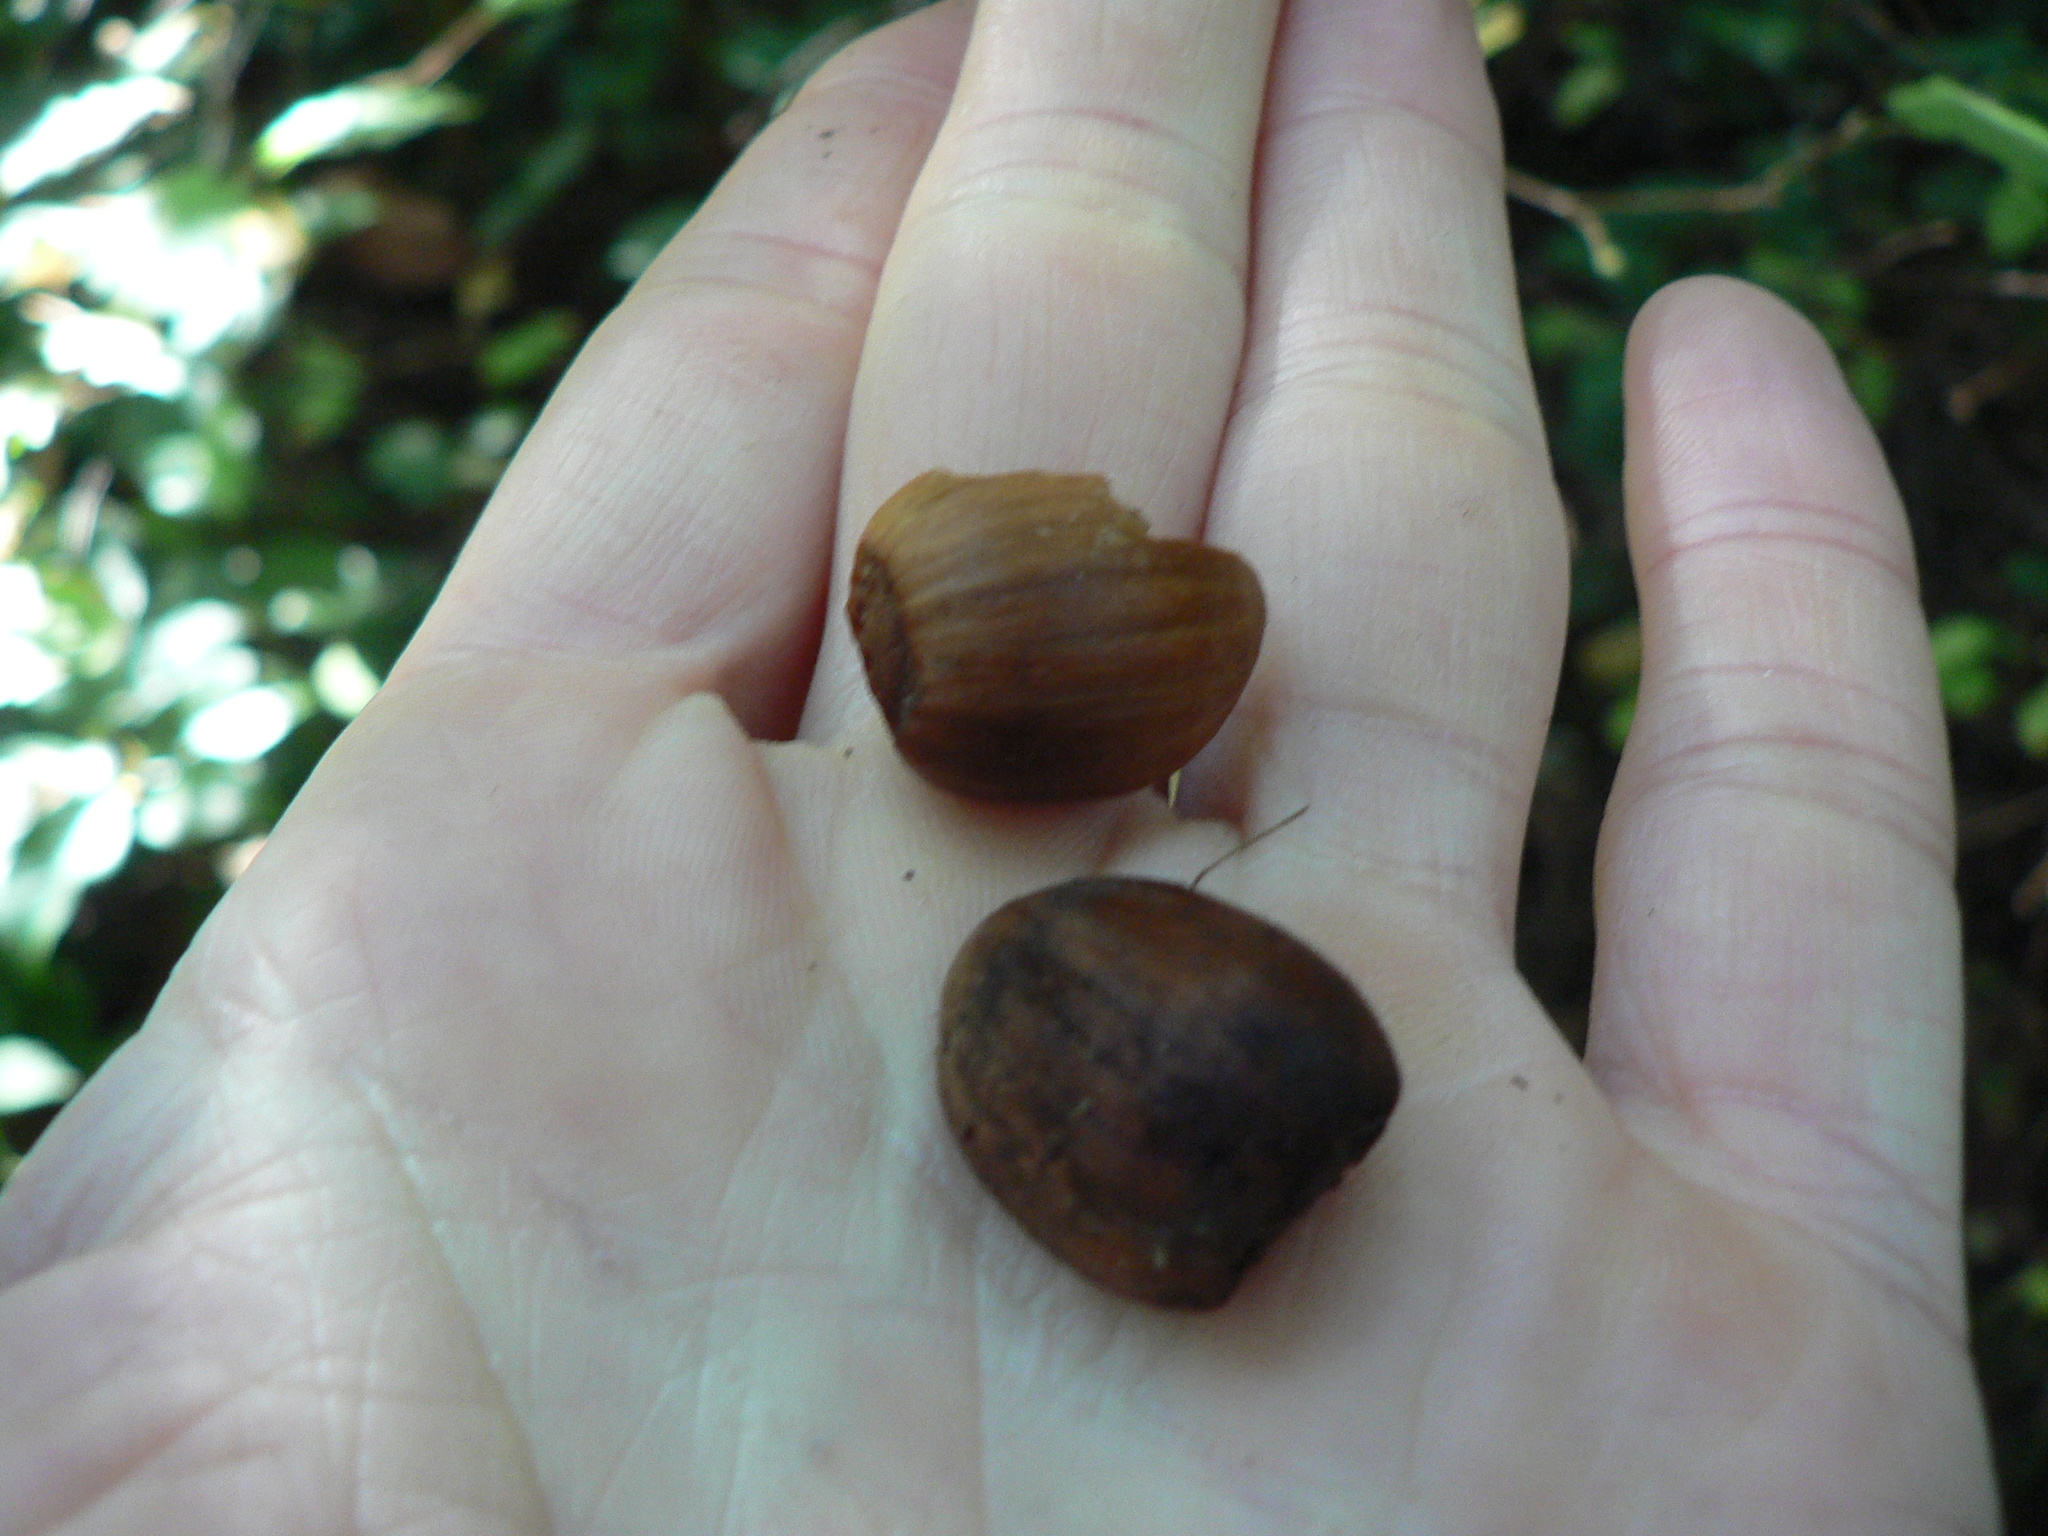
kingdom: Plantae
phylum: Tracheophyta
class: Magnoliopsida
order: Fagales
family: Betulaceae
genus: Corylus
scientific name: Corylus cornuta
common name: Beaked hazel
